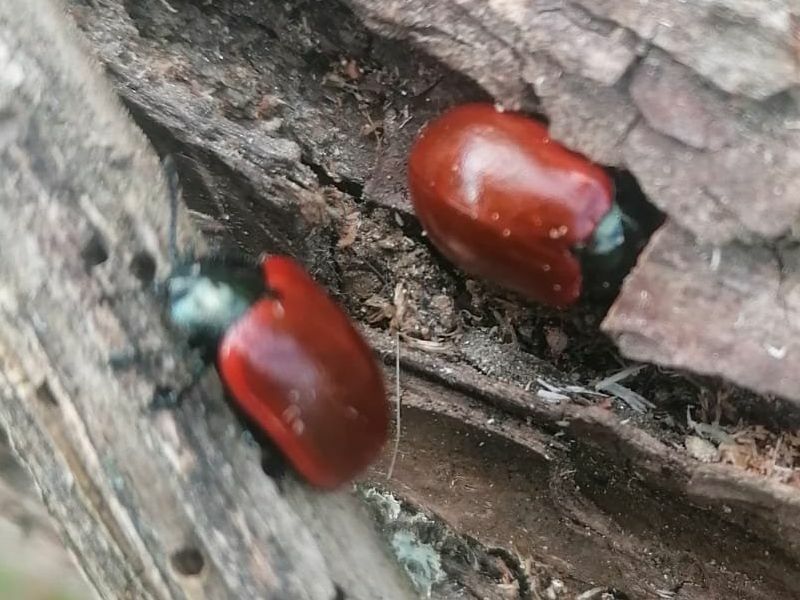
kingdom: Animalia
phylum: Arthropoda
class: Insecta
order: Coleoptera
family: Chrysomelidae
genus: Chrysomela
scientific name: Chrysomela populi
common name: Red poplar leaf beetle
